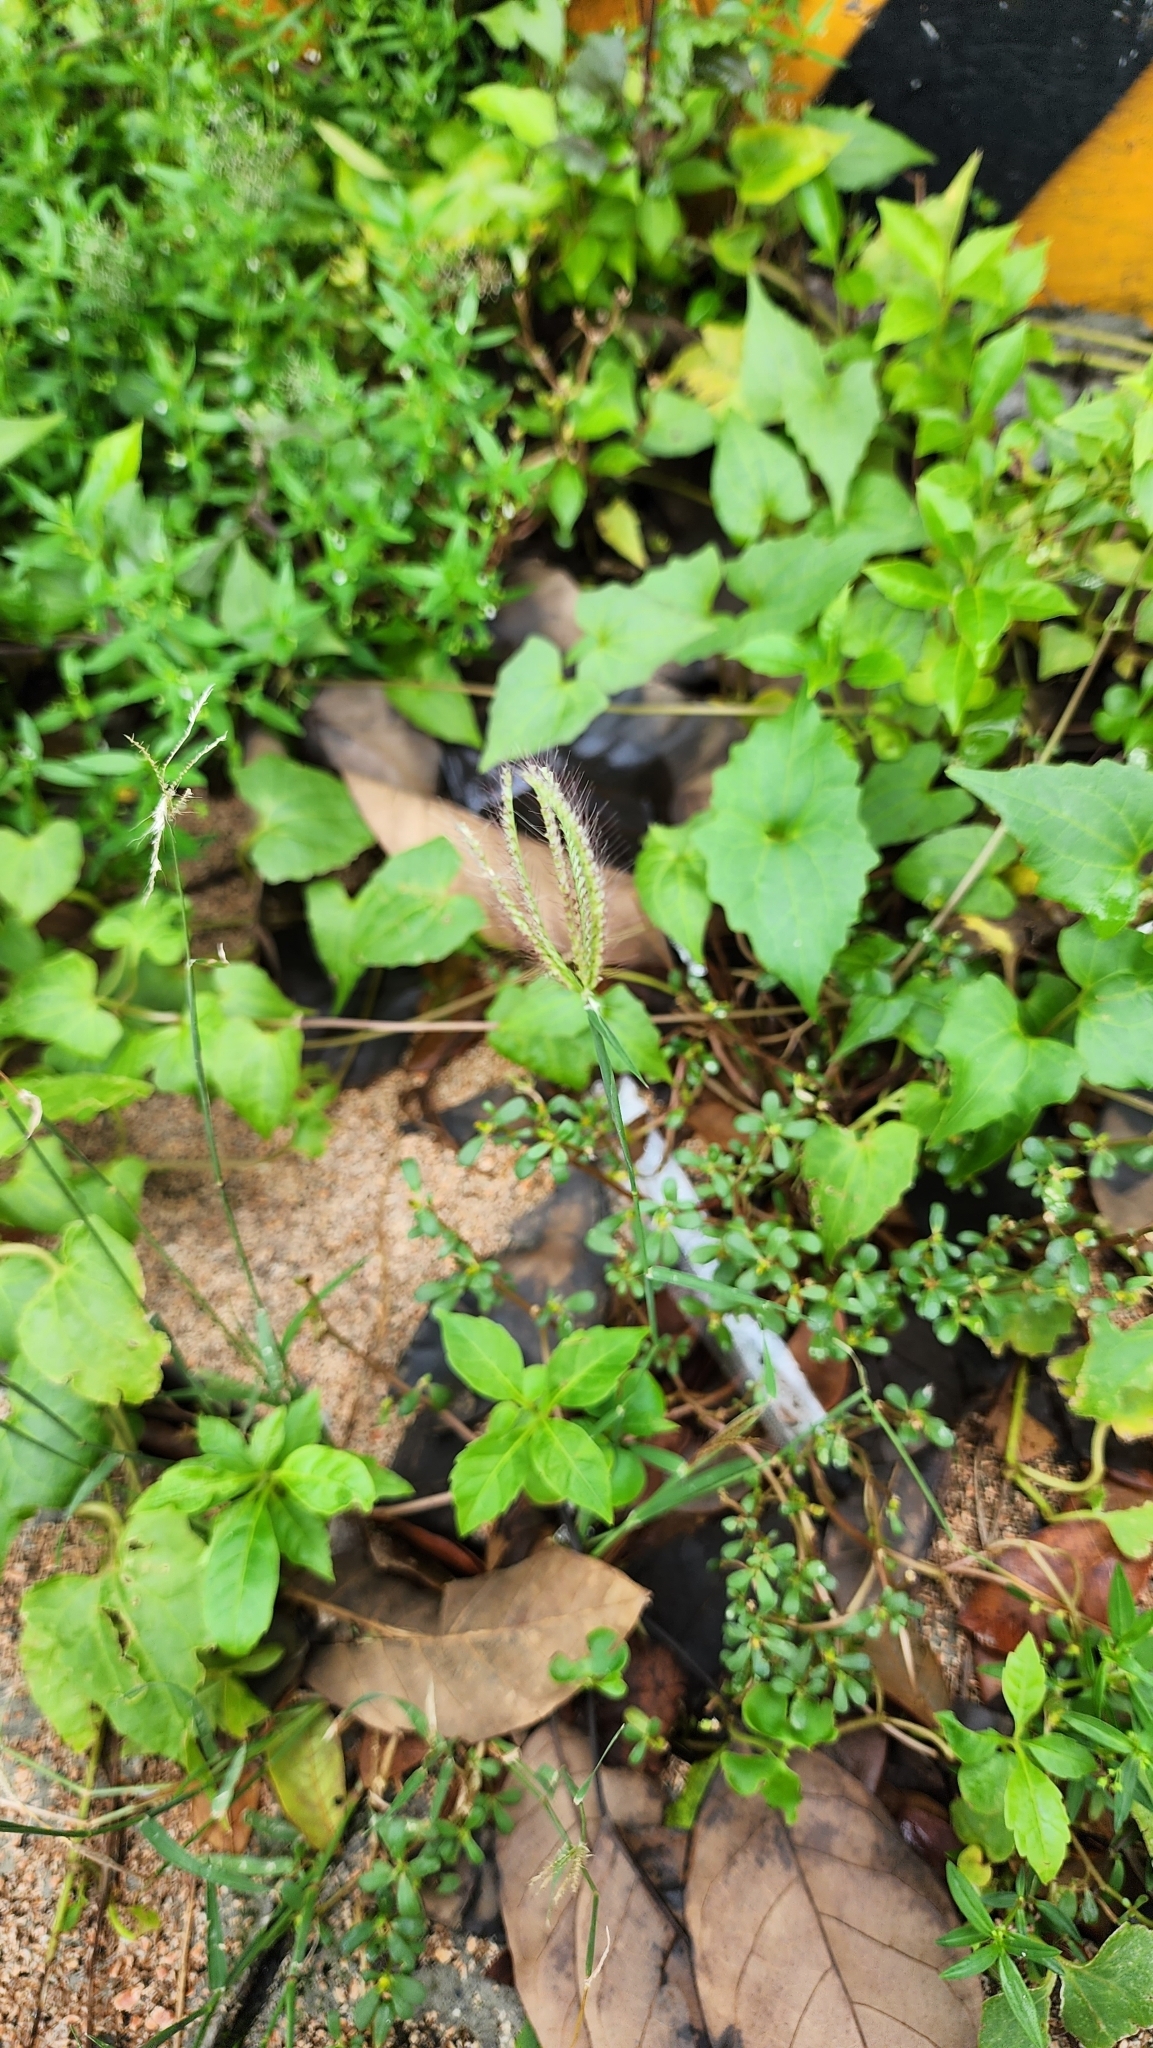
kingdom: Plantae
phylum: Tracheophyta
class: Magnoliopsida
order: Asterales
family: Asteraceae
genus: Mikania
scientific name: Mikania micrantha
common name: Mile-a-minute
